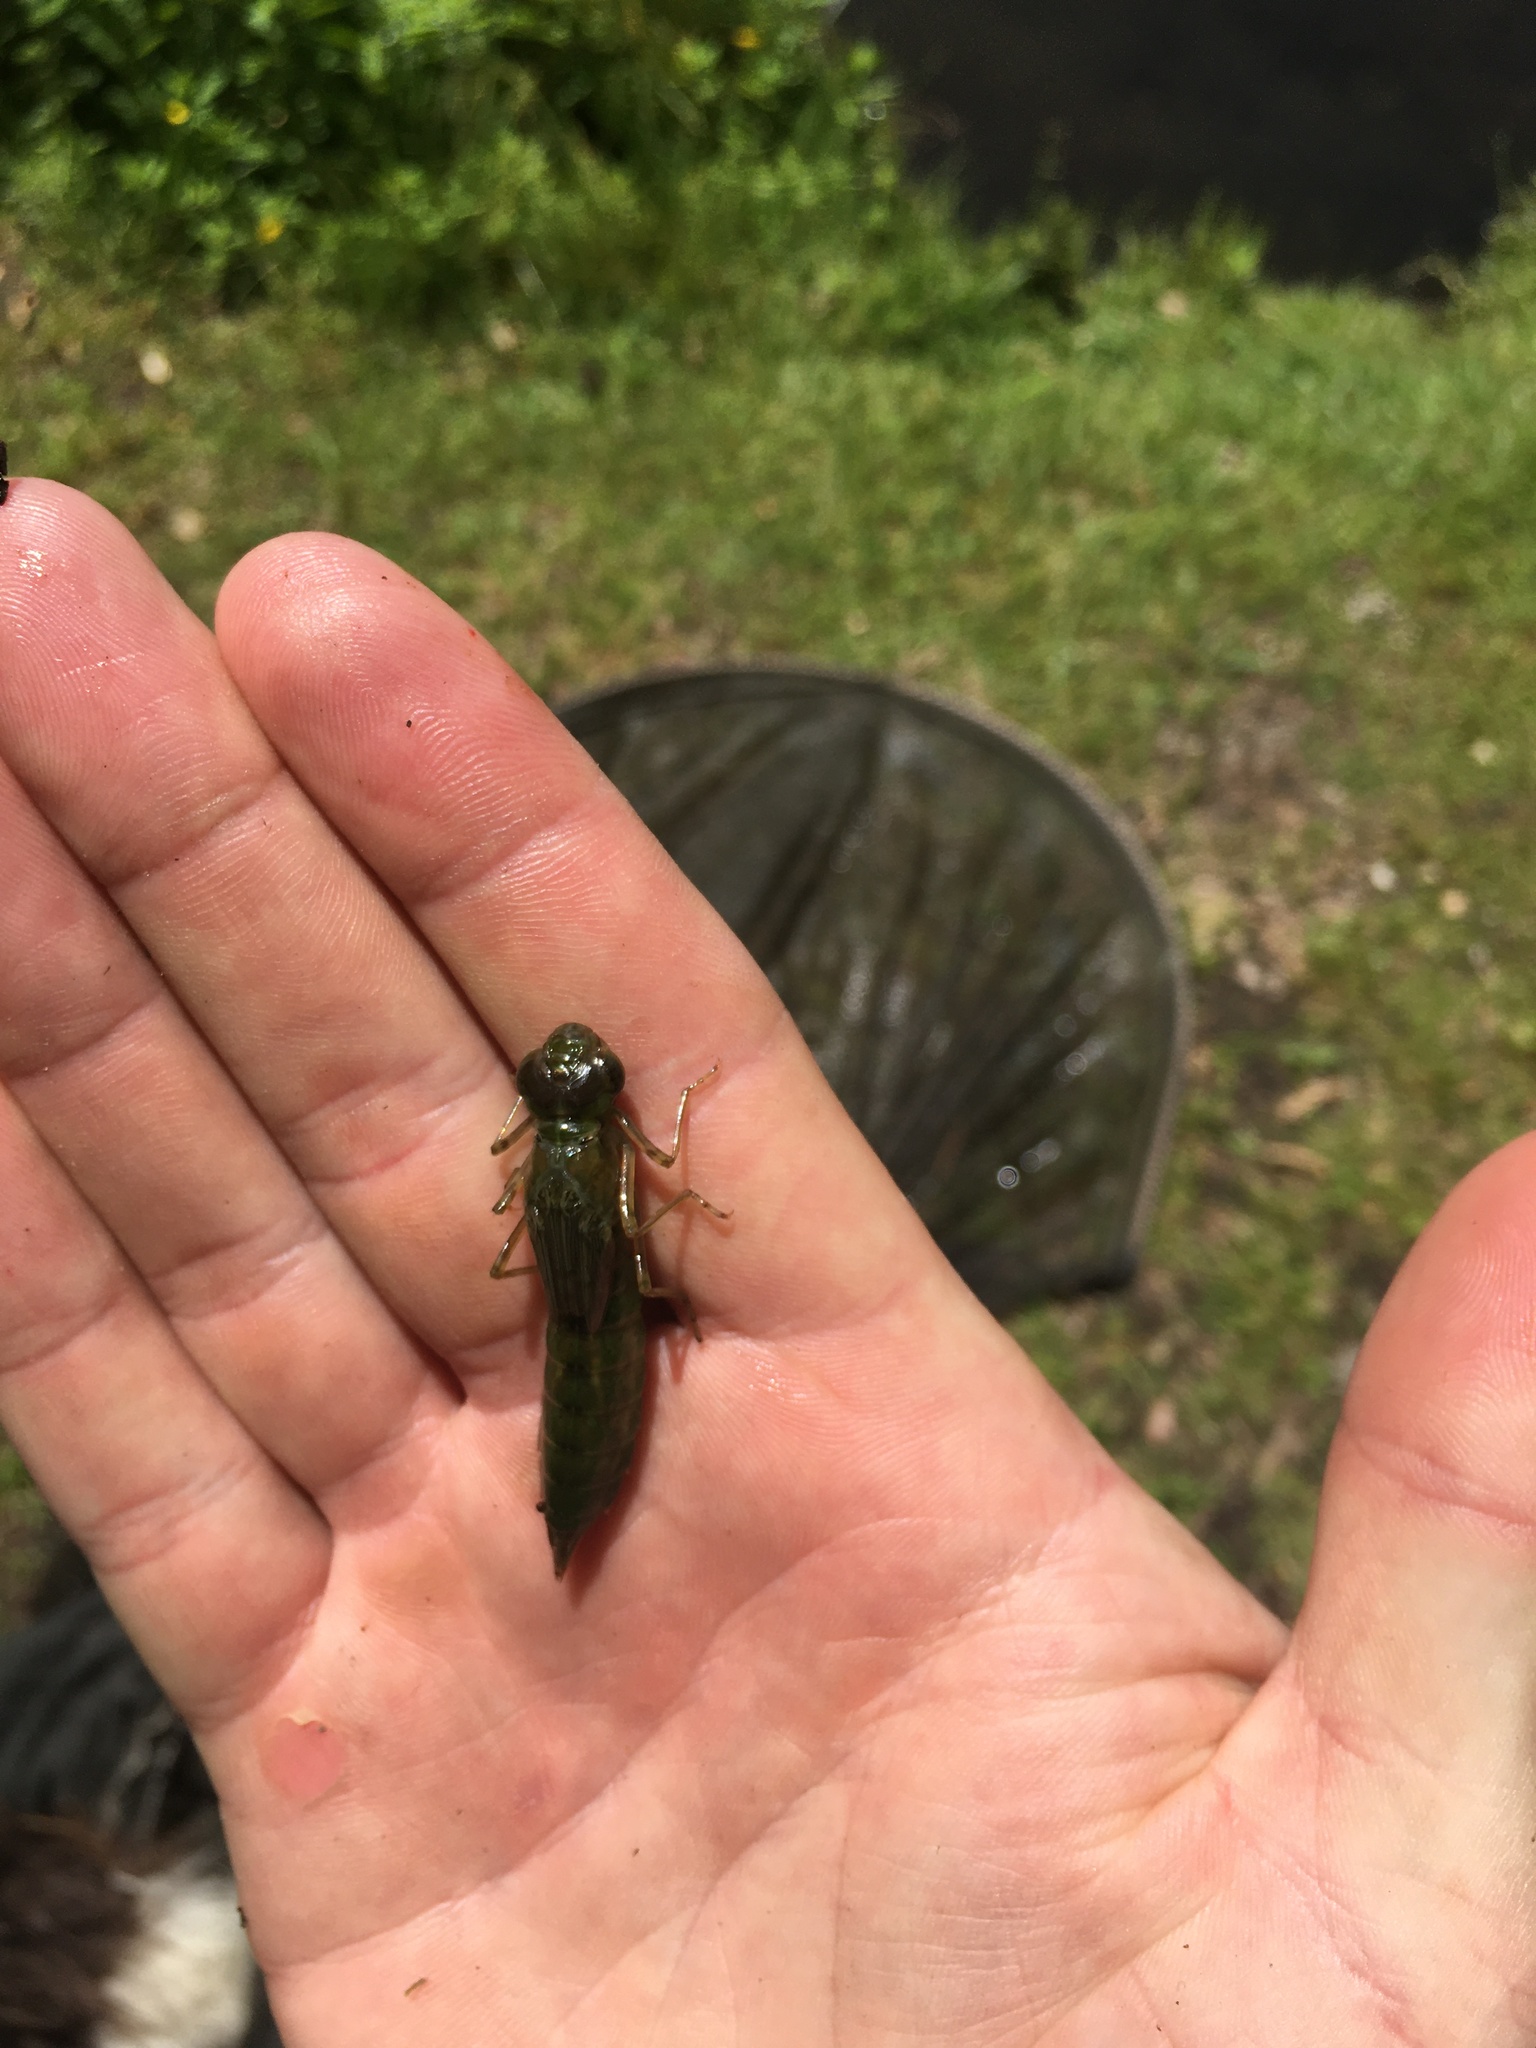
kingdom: Animalia
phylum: Arthropoda
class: Insecta
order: Odonata
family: Aeshnidae
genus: Anax
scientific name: Anax papuensis
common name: Australian emperor
